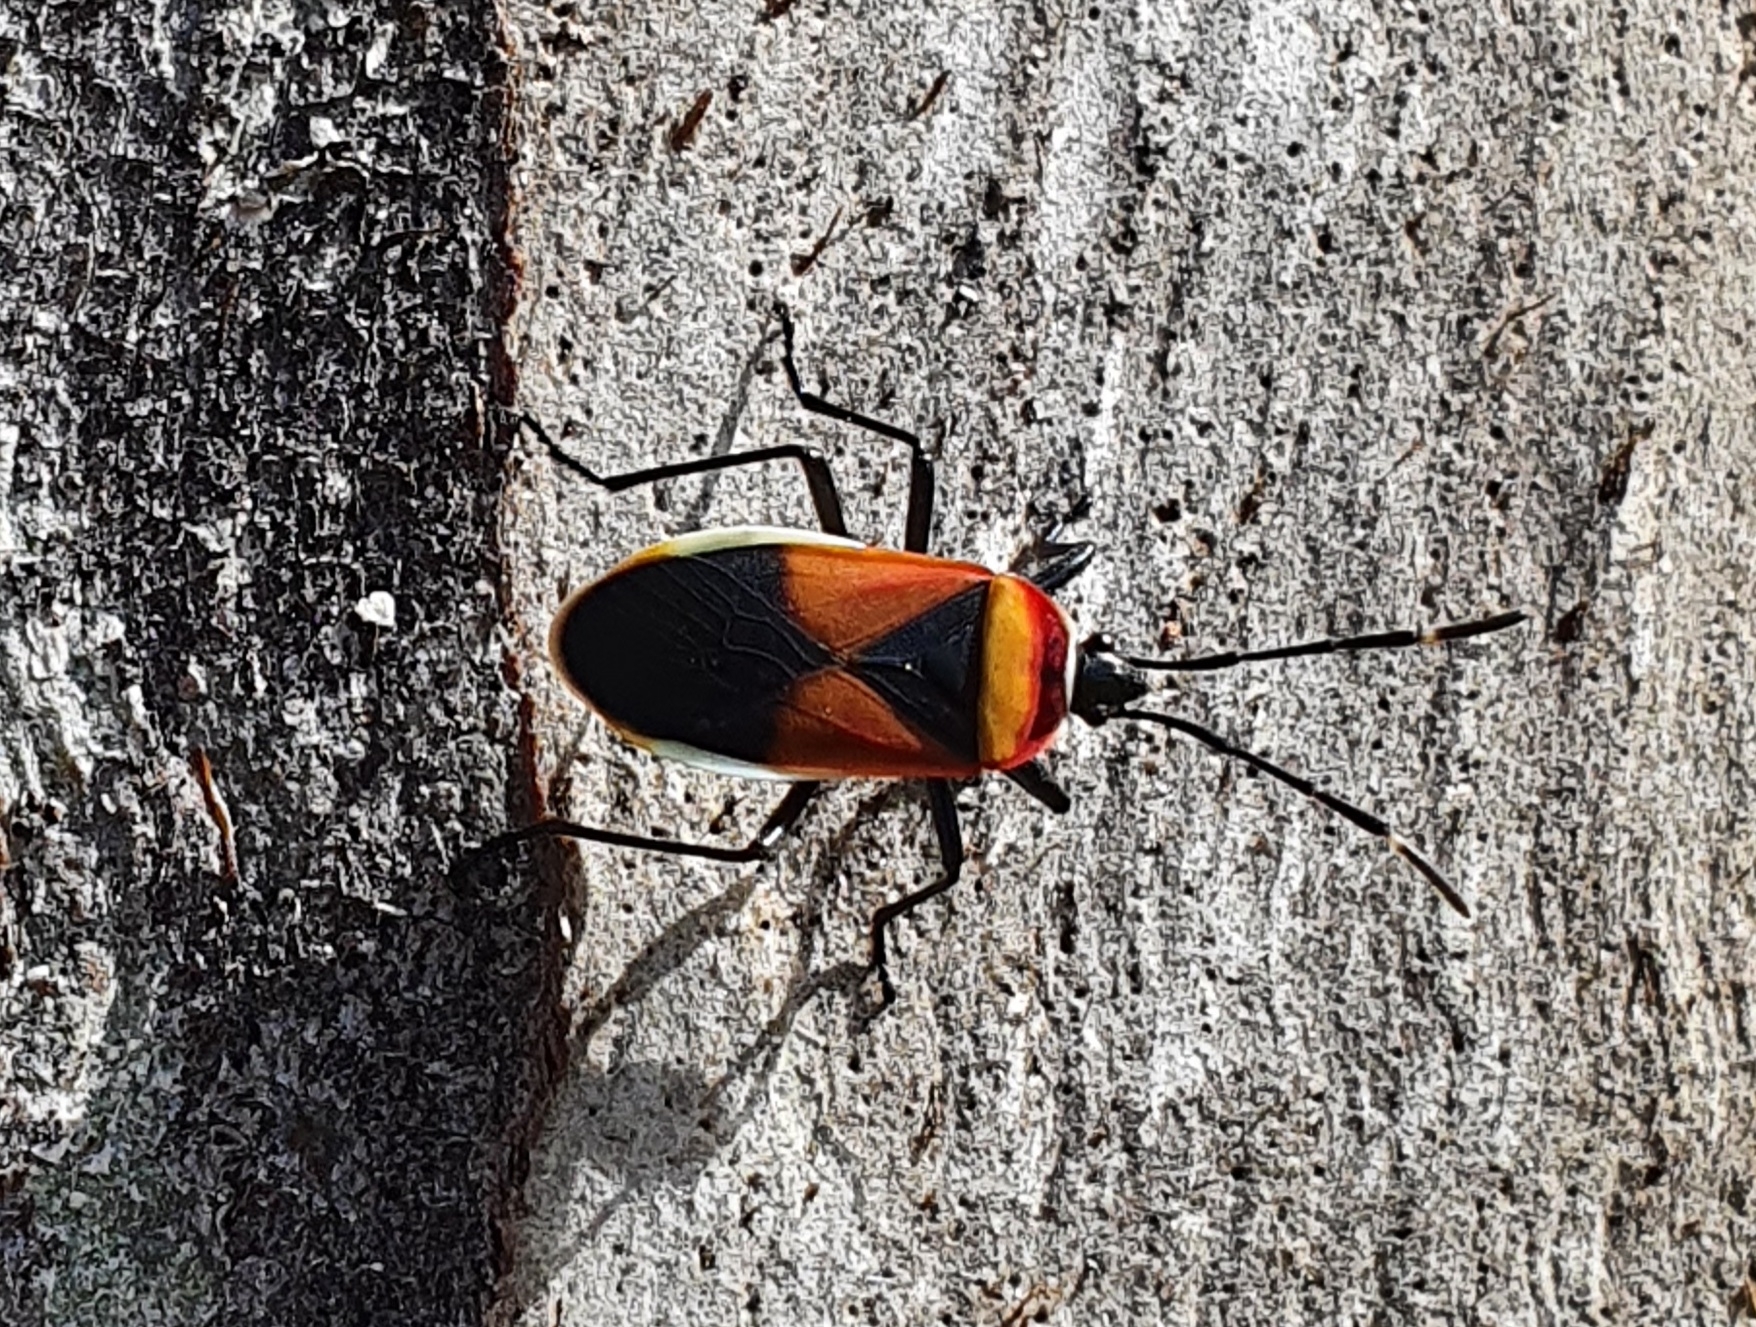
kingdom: Animalia
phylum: Arthropoda
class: Insecta
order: Hemiptera
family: Pyrrhocoridae
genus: Dindymus
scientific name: Dindymus
